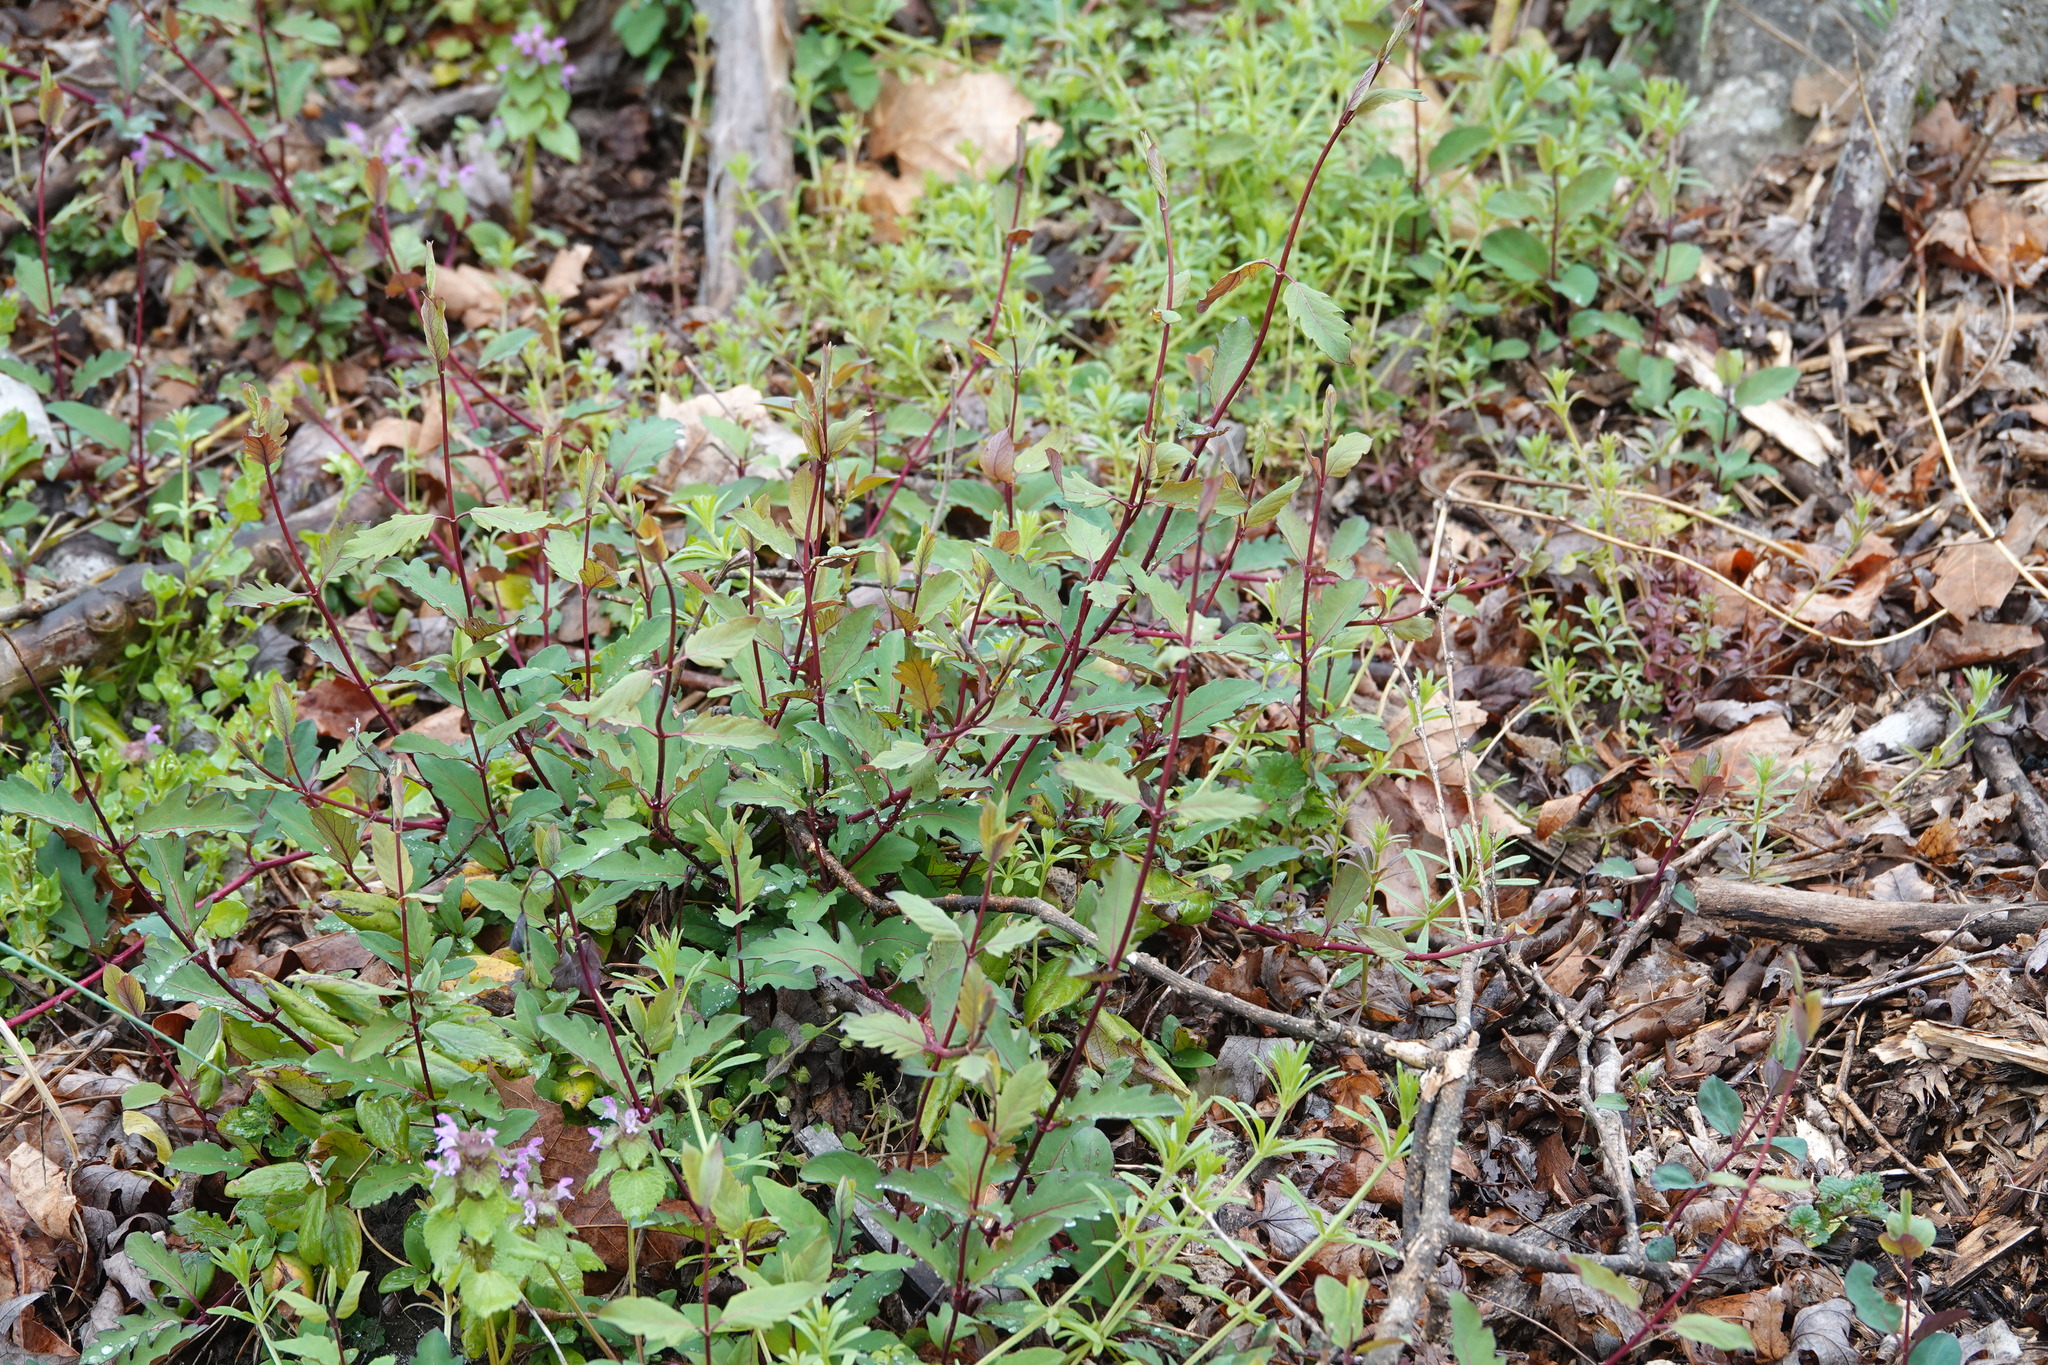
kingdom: Plantae
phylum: Tracheophyta
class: Magnoliopsida
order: Dipsacales
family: Caprifoliaceae
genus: Lonicera
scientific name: Lonicera japonica
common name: Japanese honeysuckle
